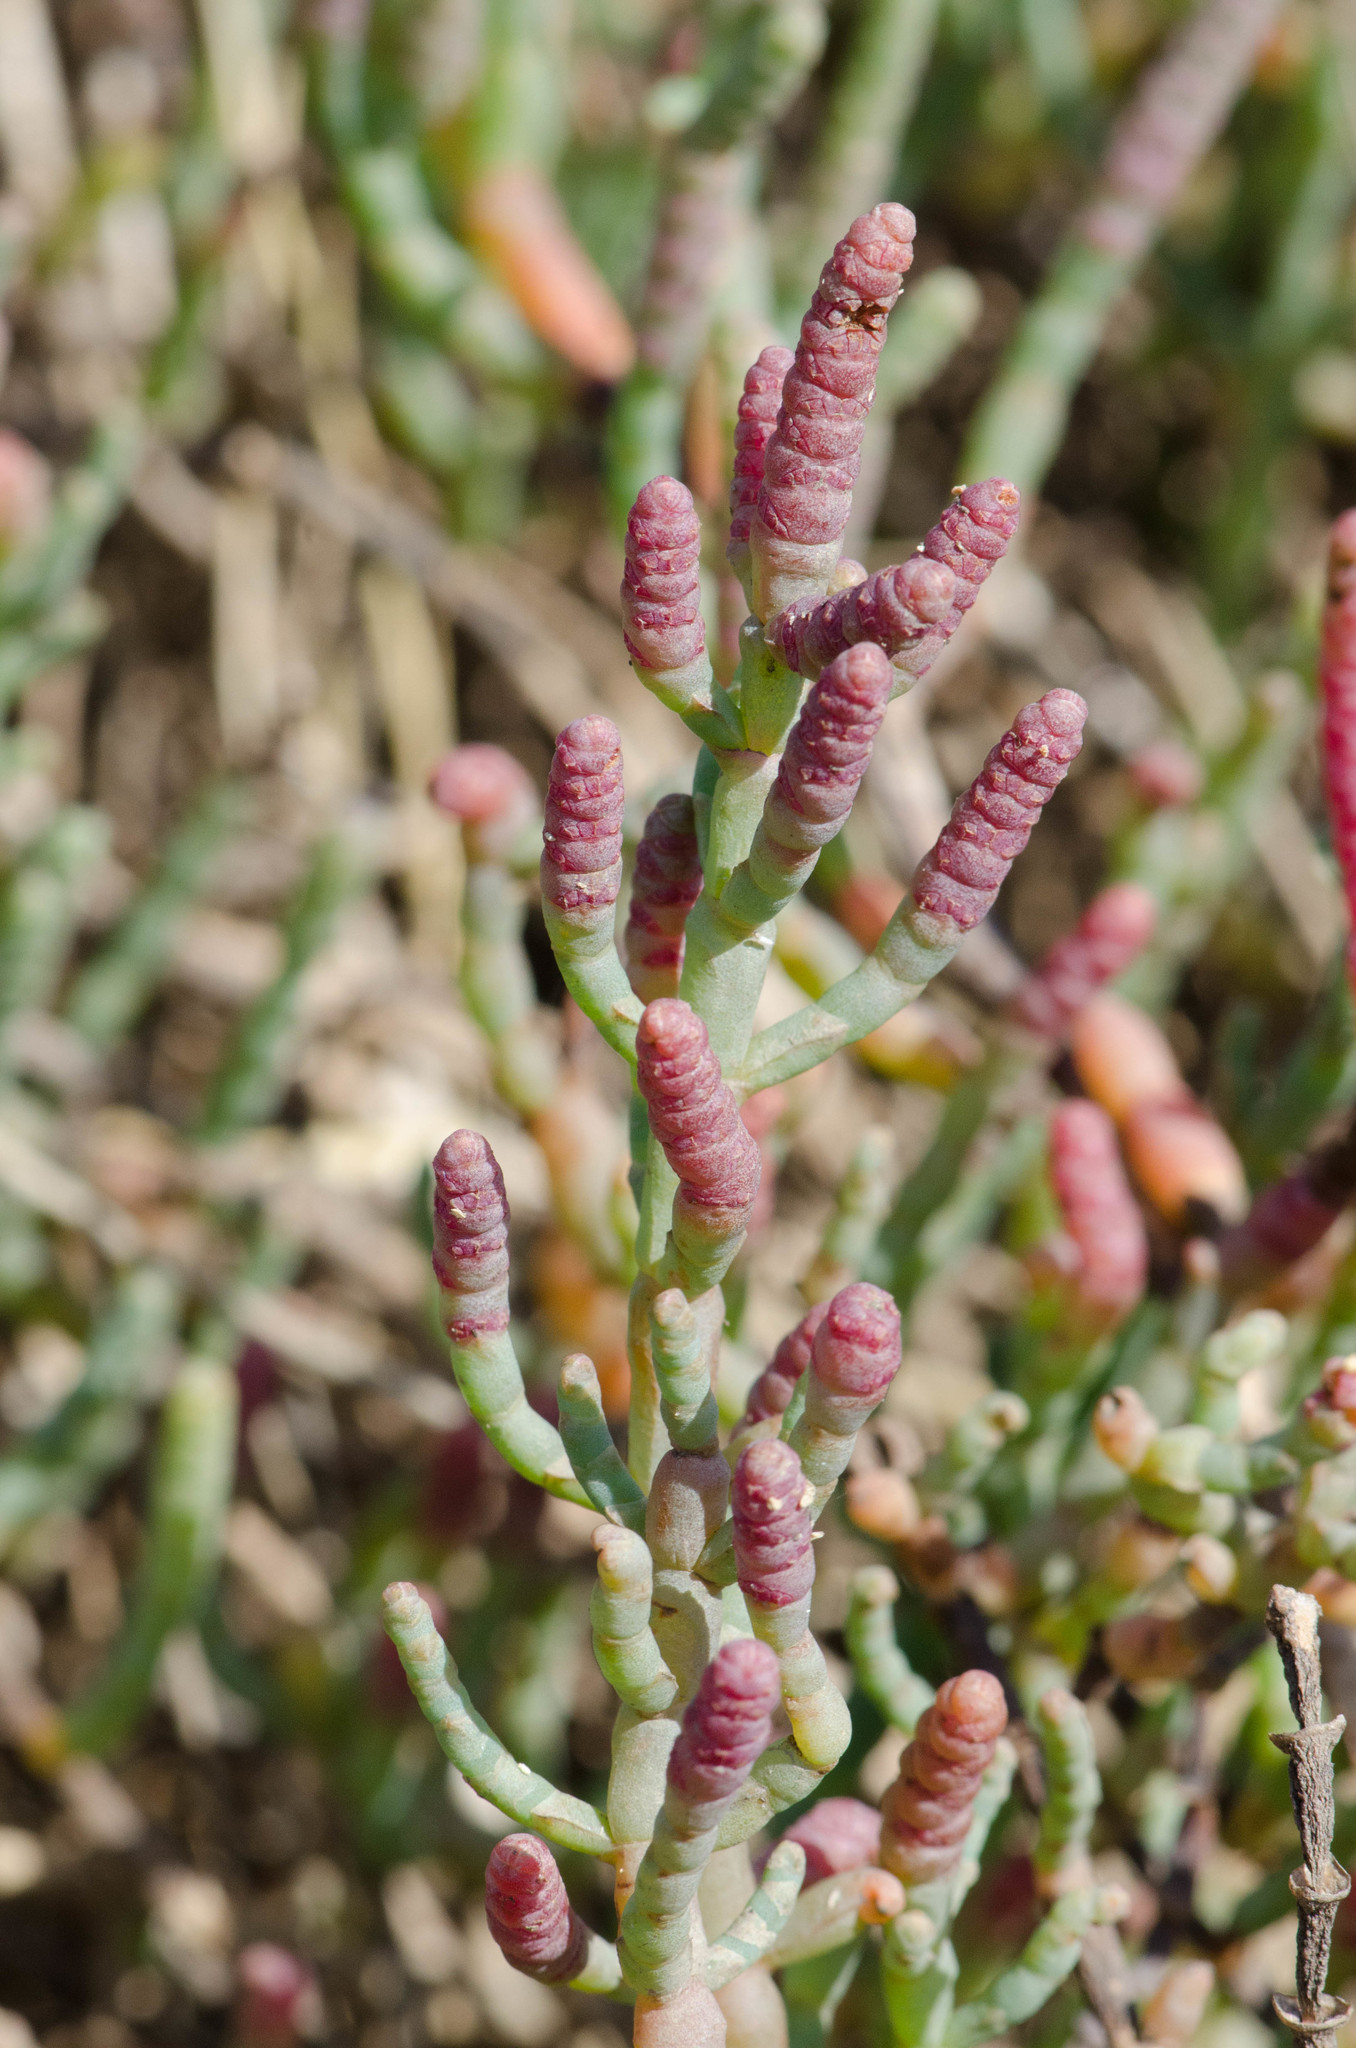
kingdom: Plantae
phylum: Tracheophyta
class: Magnoliopsida
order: Caryophyllales
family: Amaranthaceae
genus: Salicornia
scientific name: Salicornia pacifica
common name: Pacific glasswort
